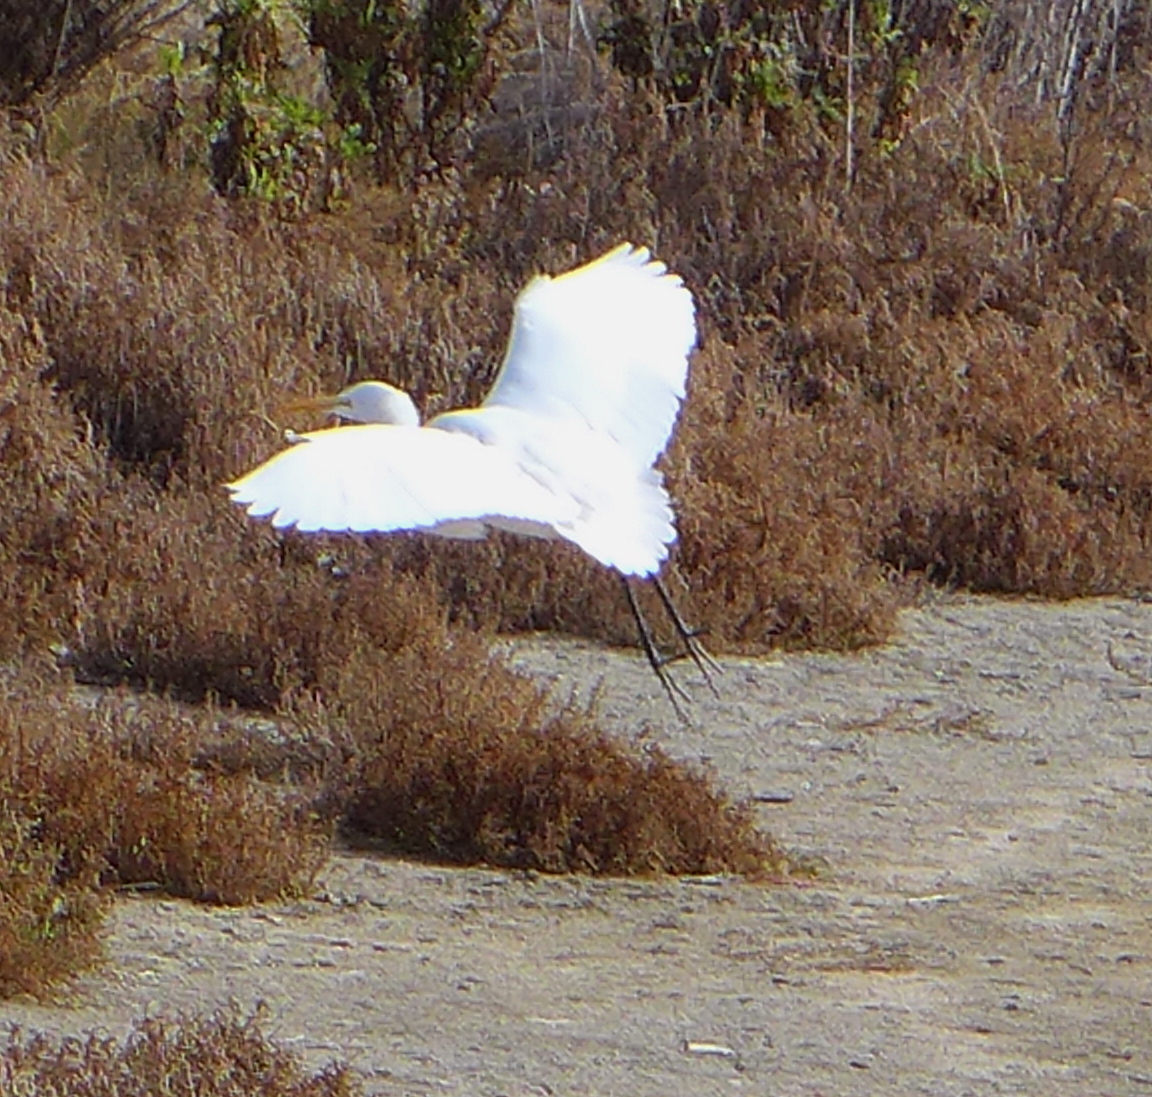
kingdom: Animalia
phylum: Chordata
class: Aves
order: Pelecaniformes
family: Ardeidae
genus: Ardea
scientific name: Ardea alba
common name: Great egret
